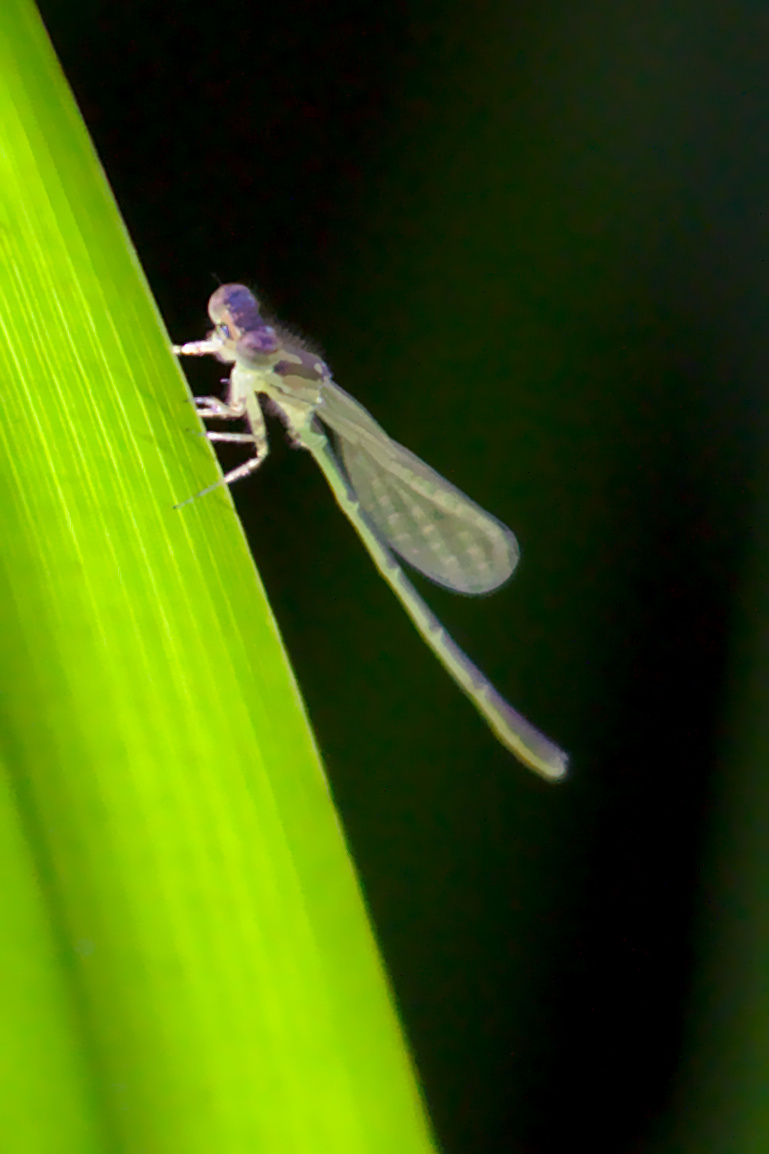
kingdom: Animalia
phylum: Arthropoda
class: Insecta
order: Odonata
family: Coenagrionidae
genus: Ischnura
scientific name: Ischnura posita
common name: Fragile forktail
